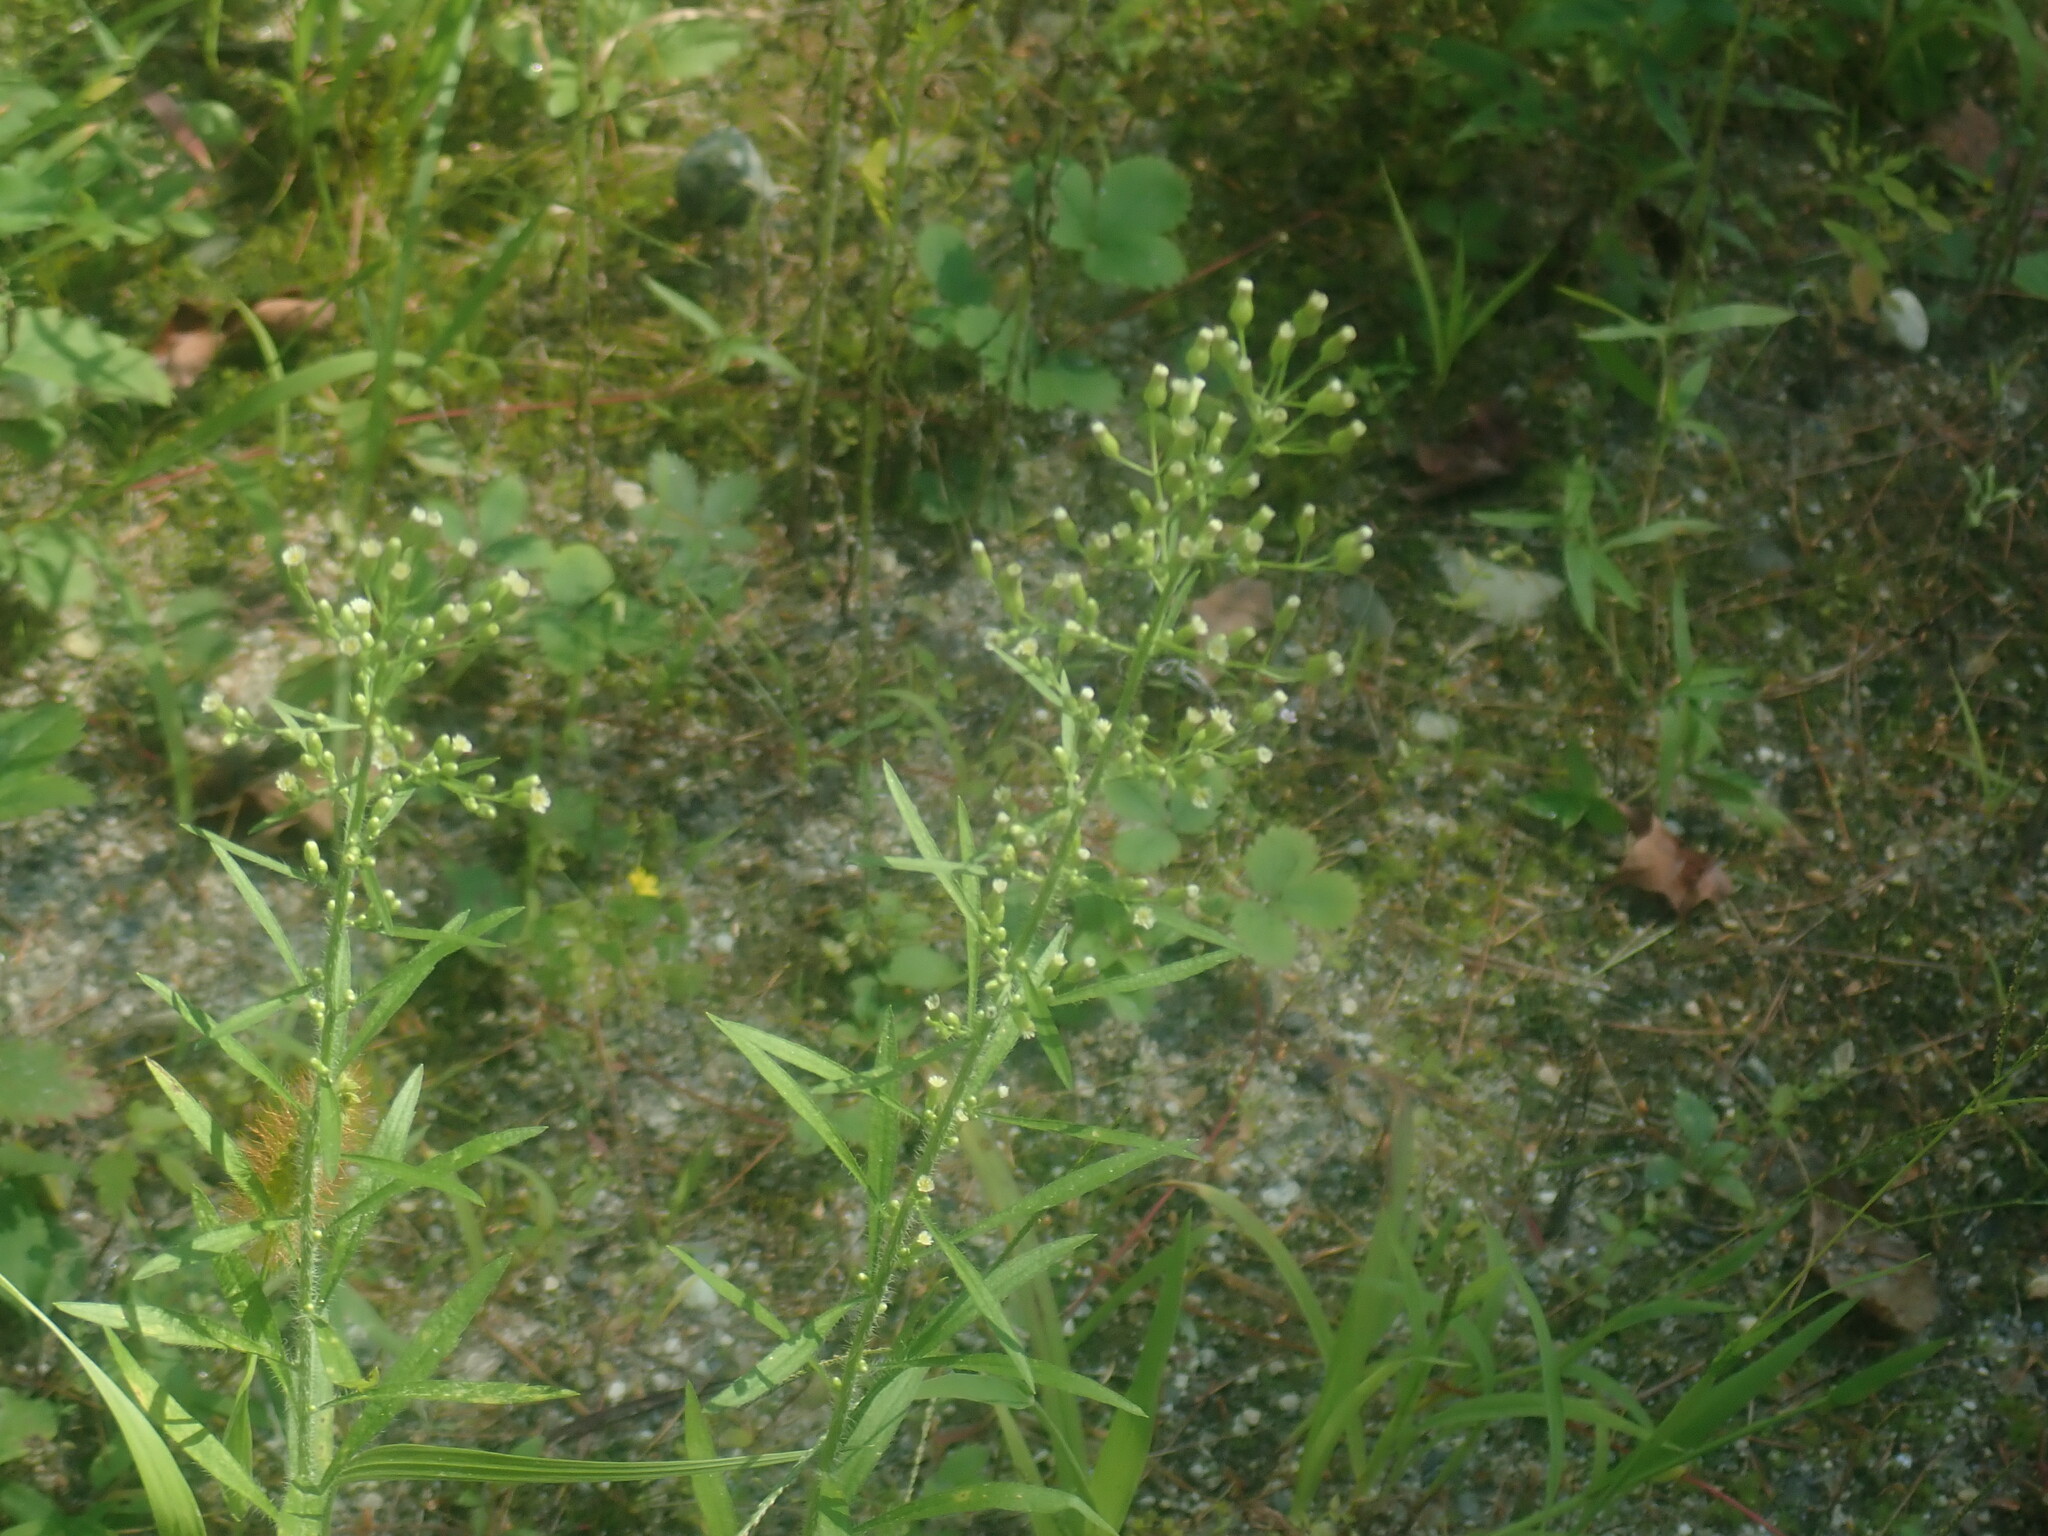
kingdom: Plantae
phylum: Tracheophyta
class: Magnoliopsida
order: Asterales
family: Asteraceae
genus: Erigeron
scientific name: Erigeron canadensis
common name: Canadian fleabane
